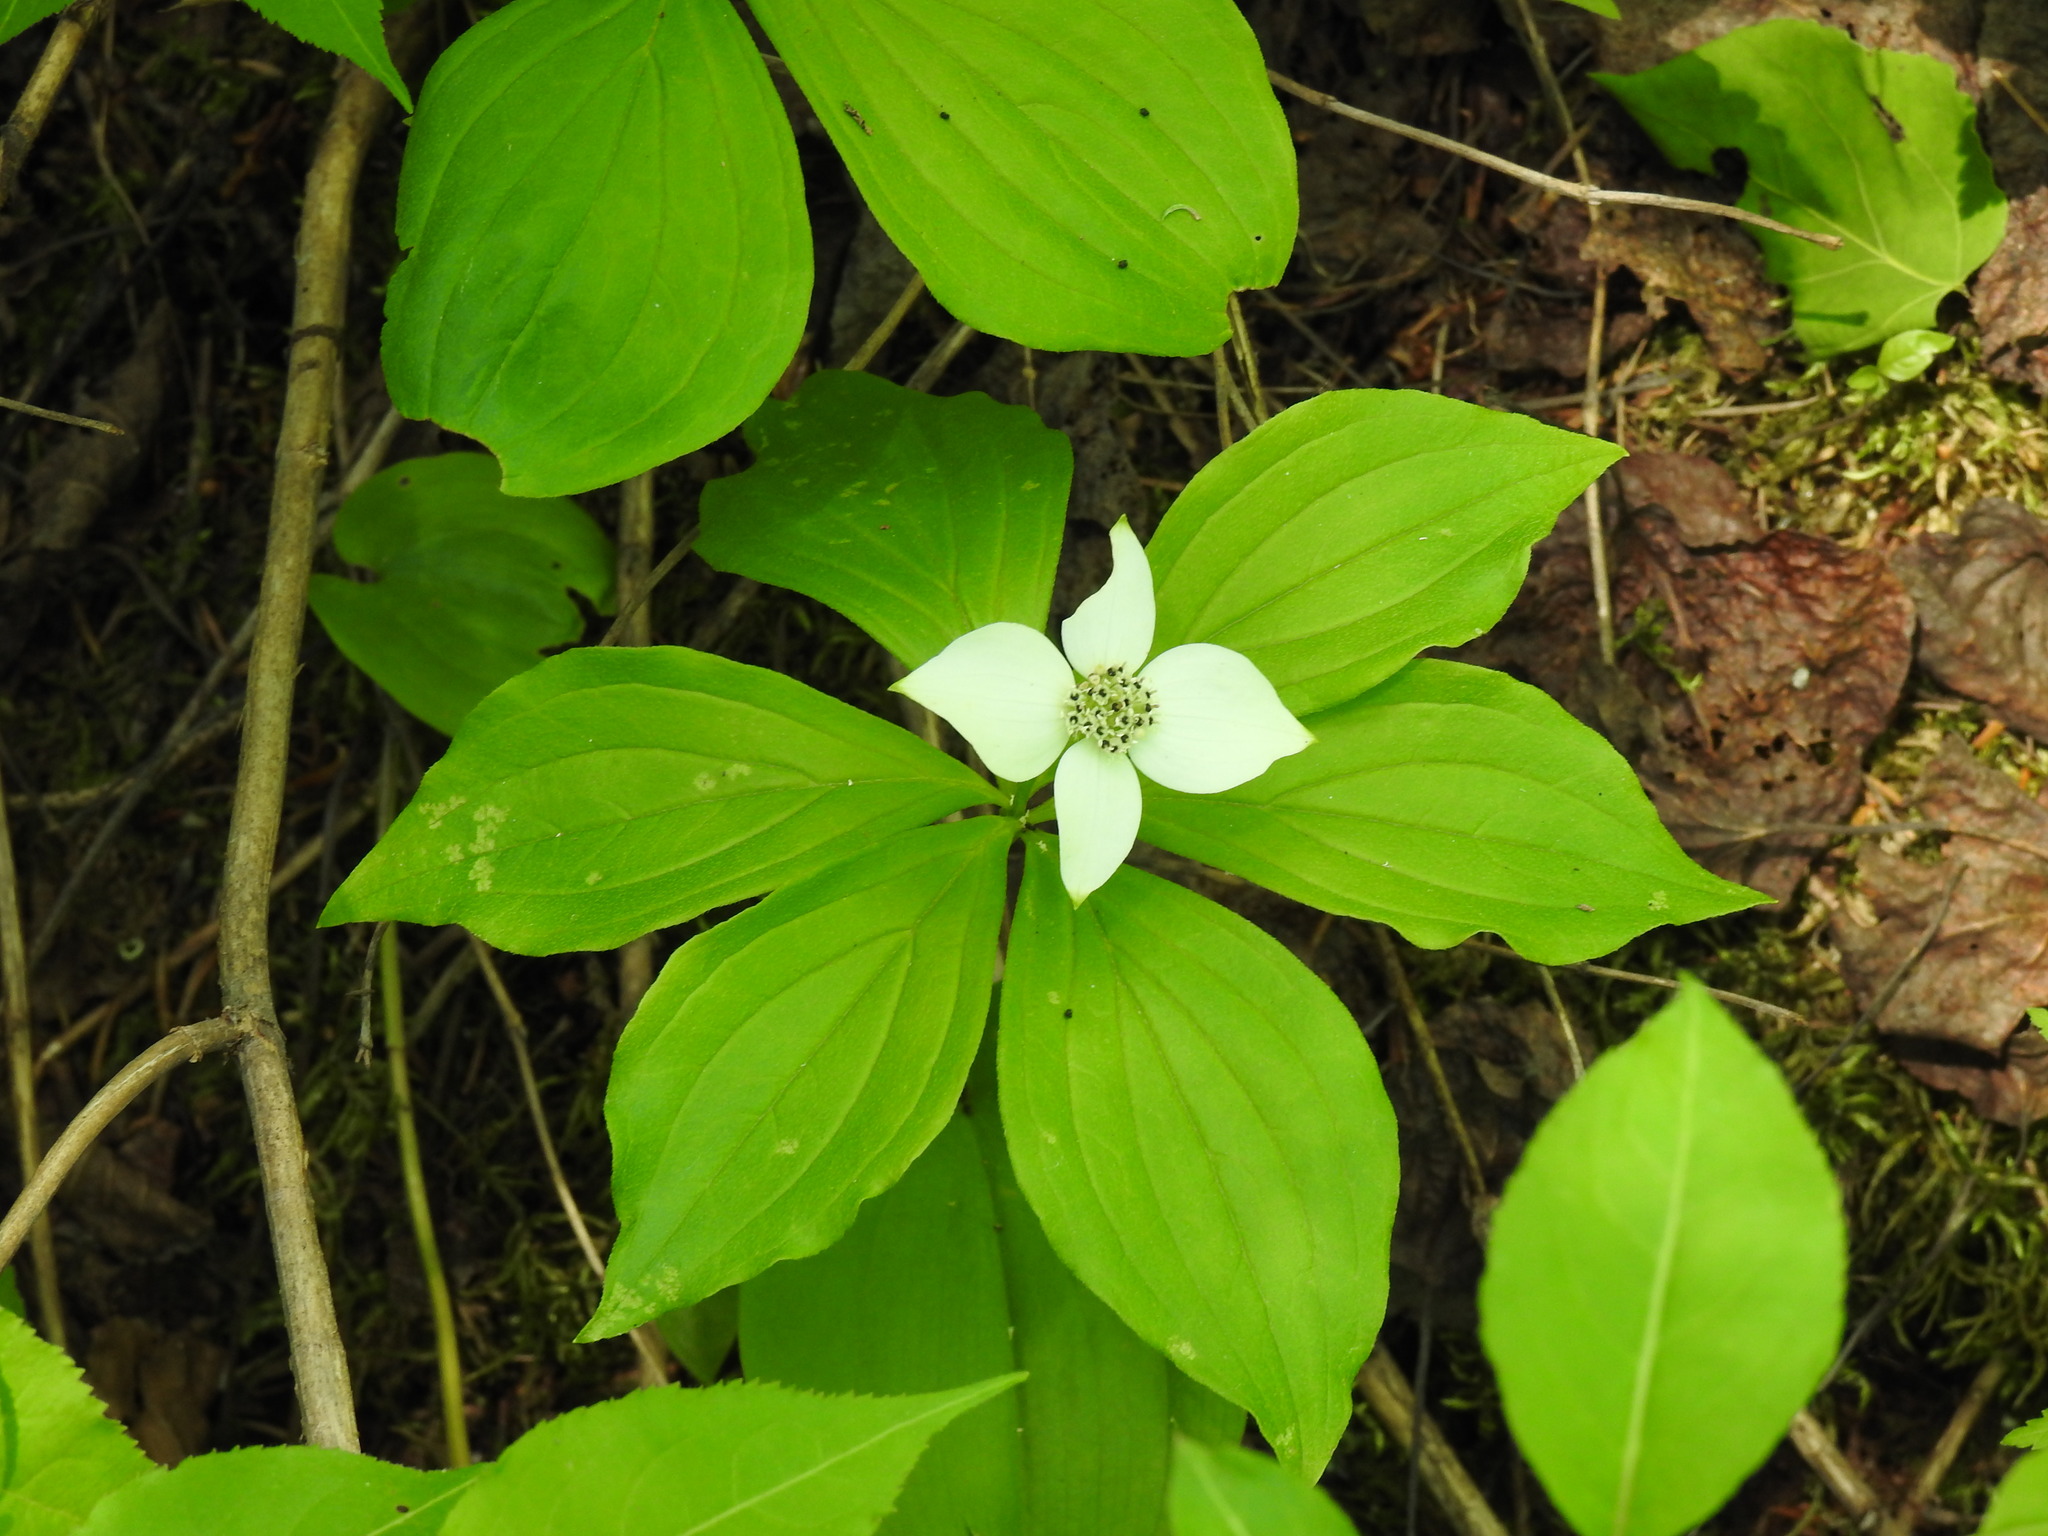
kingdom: Plantae
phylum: Tracheophyta
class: Magnoliopsida
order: Cornales
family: Cornaceae
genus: Cornus
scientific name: Cornus canadensis
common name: Creeping dogwood
